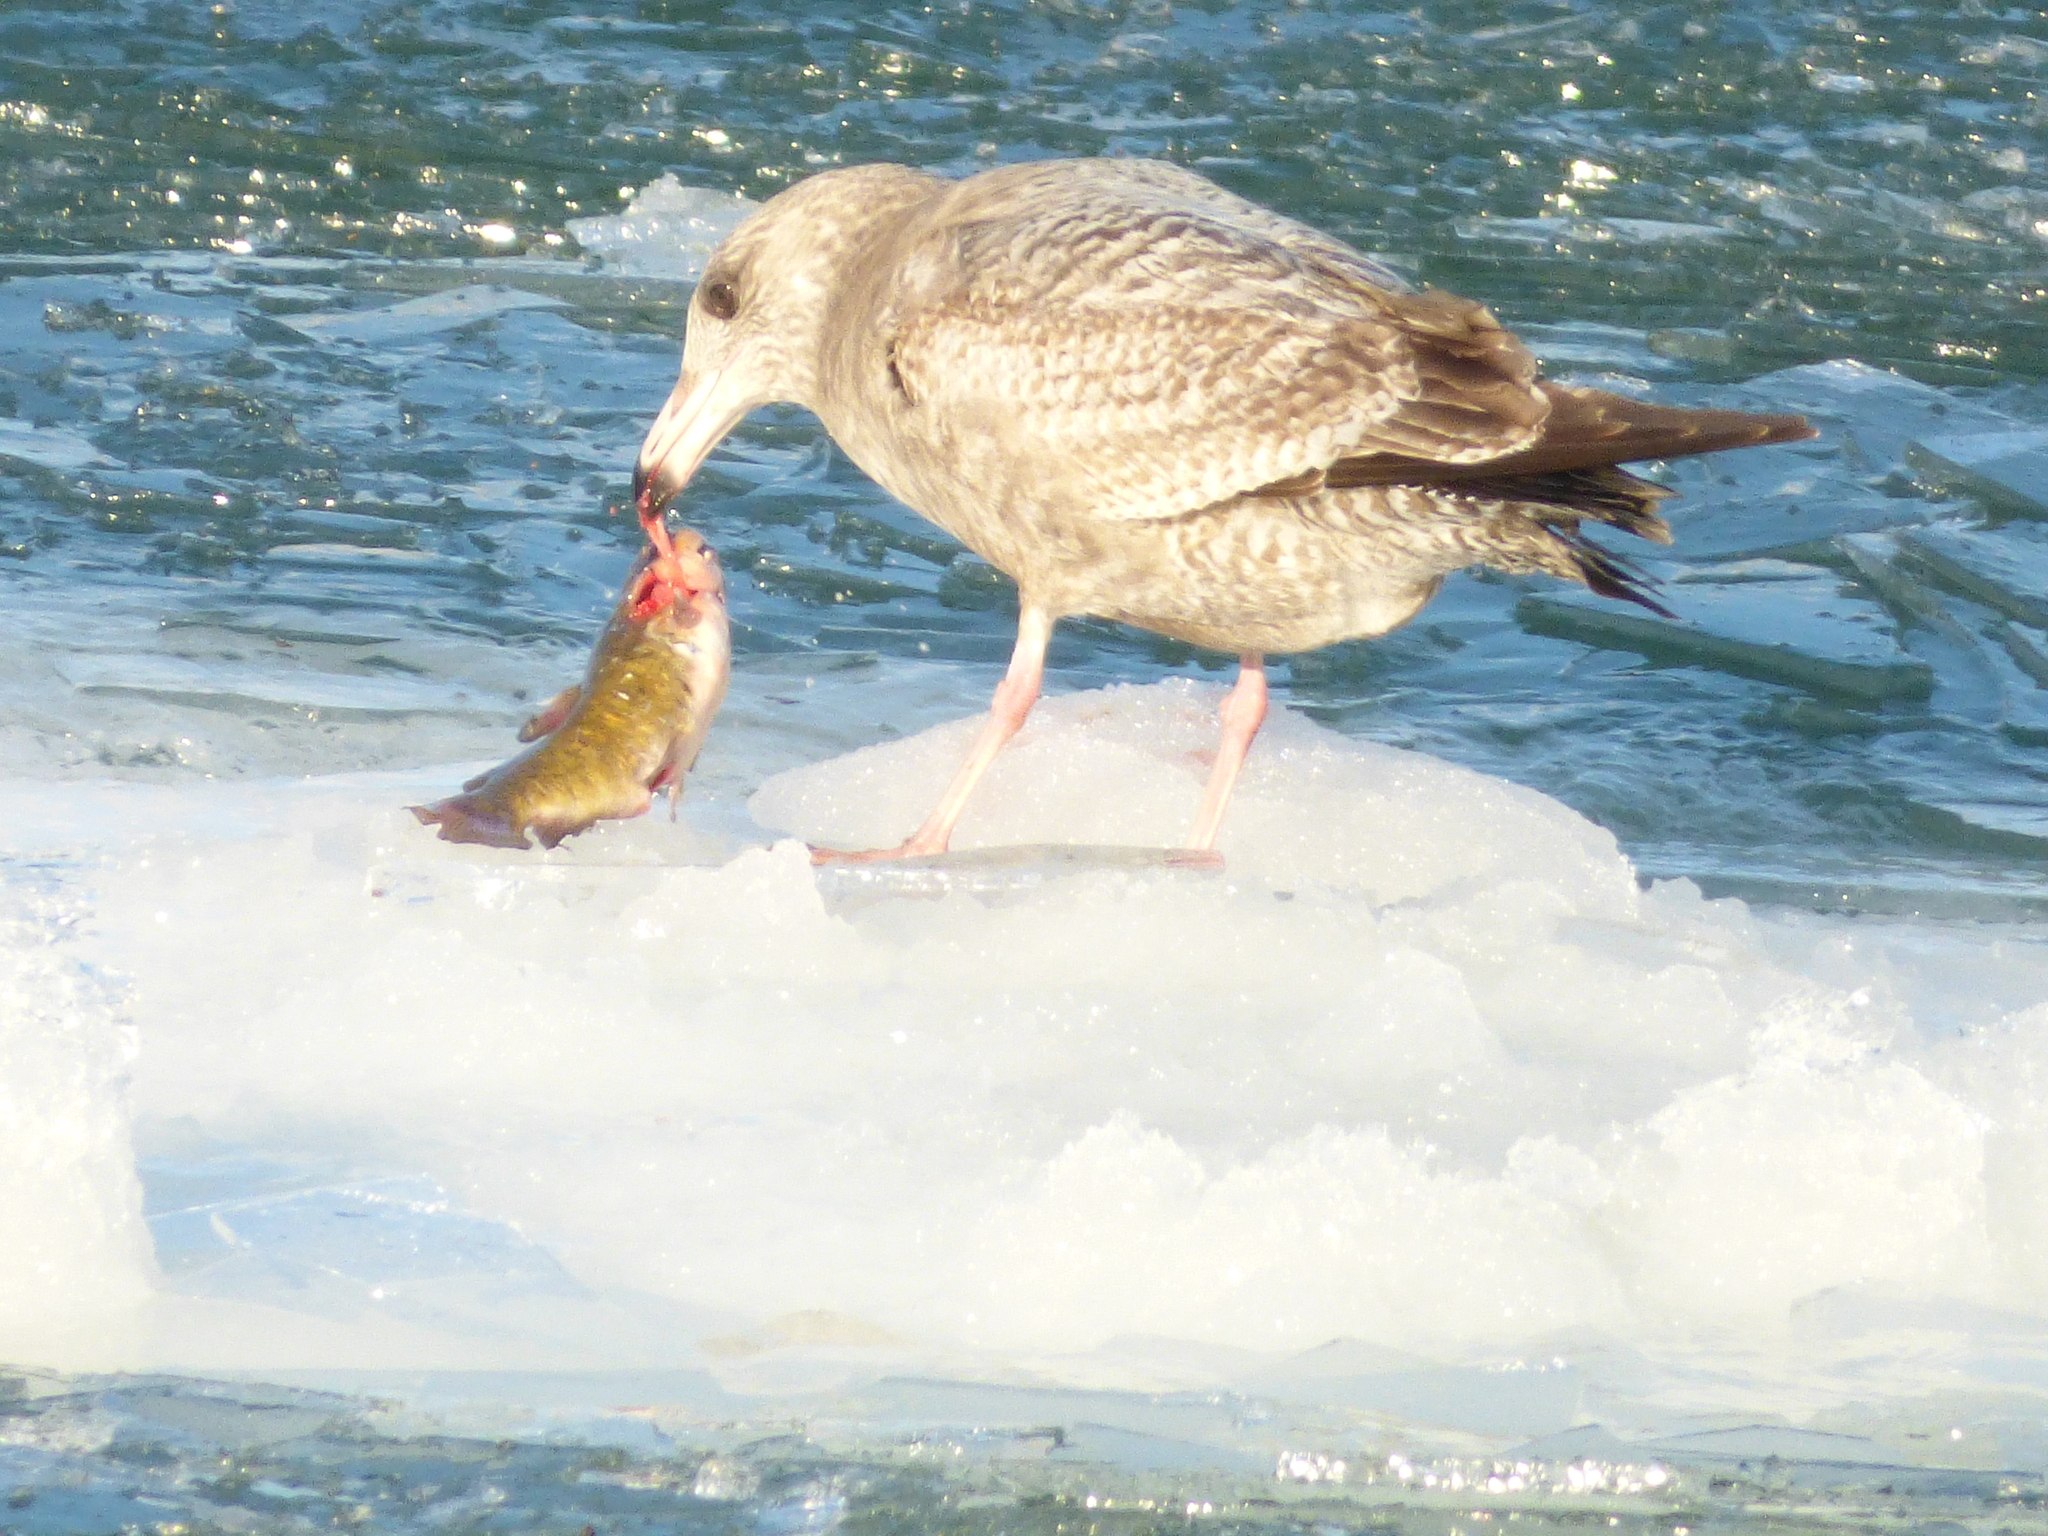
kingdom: Animalia
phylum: Chordata
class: Aves
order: Charadriiformes
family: Laridae
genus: Larus
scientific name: Larus argentatus
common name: Herring gull
